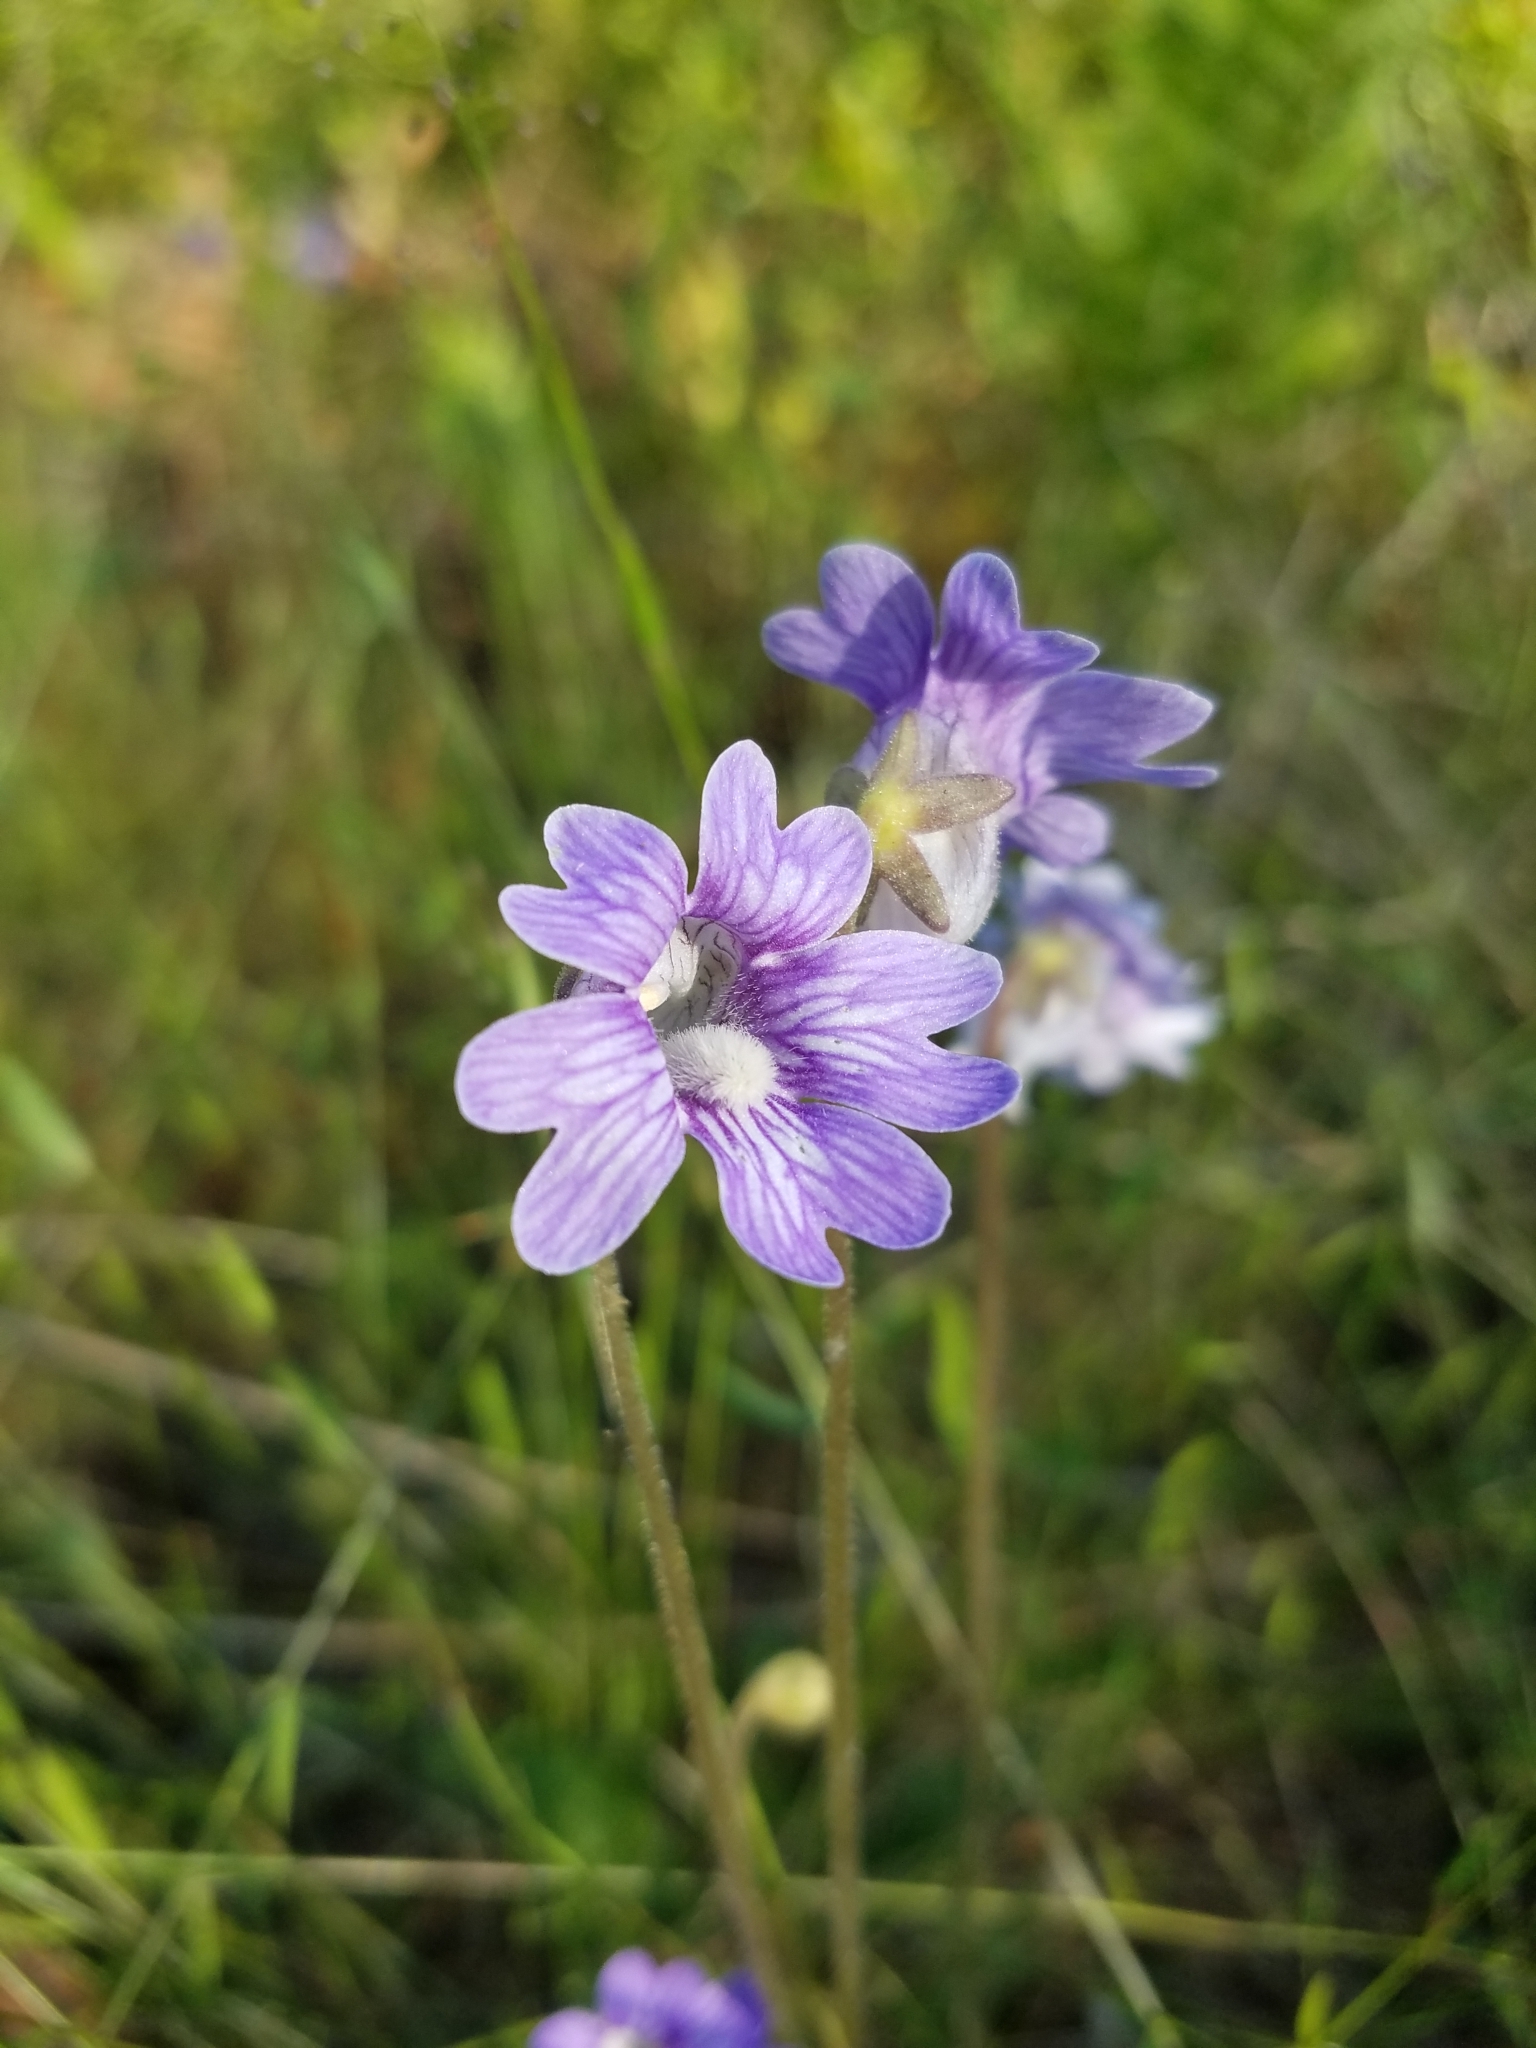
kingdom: Plantae
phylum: Tracheophyta
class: Magnoliopsida
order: Lamiales
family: Lentibulariaceae
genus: Pinguicula
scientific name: Pinguicula caerulea
